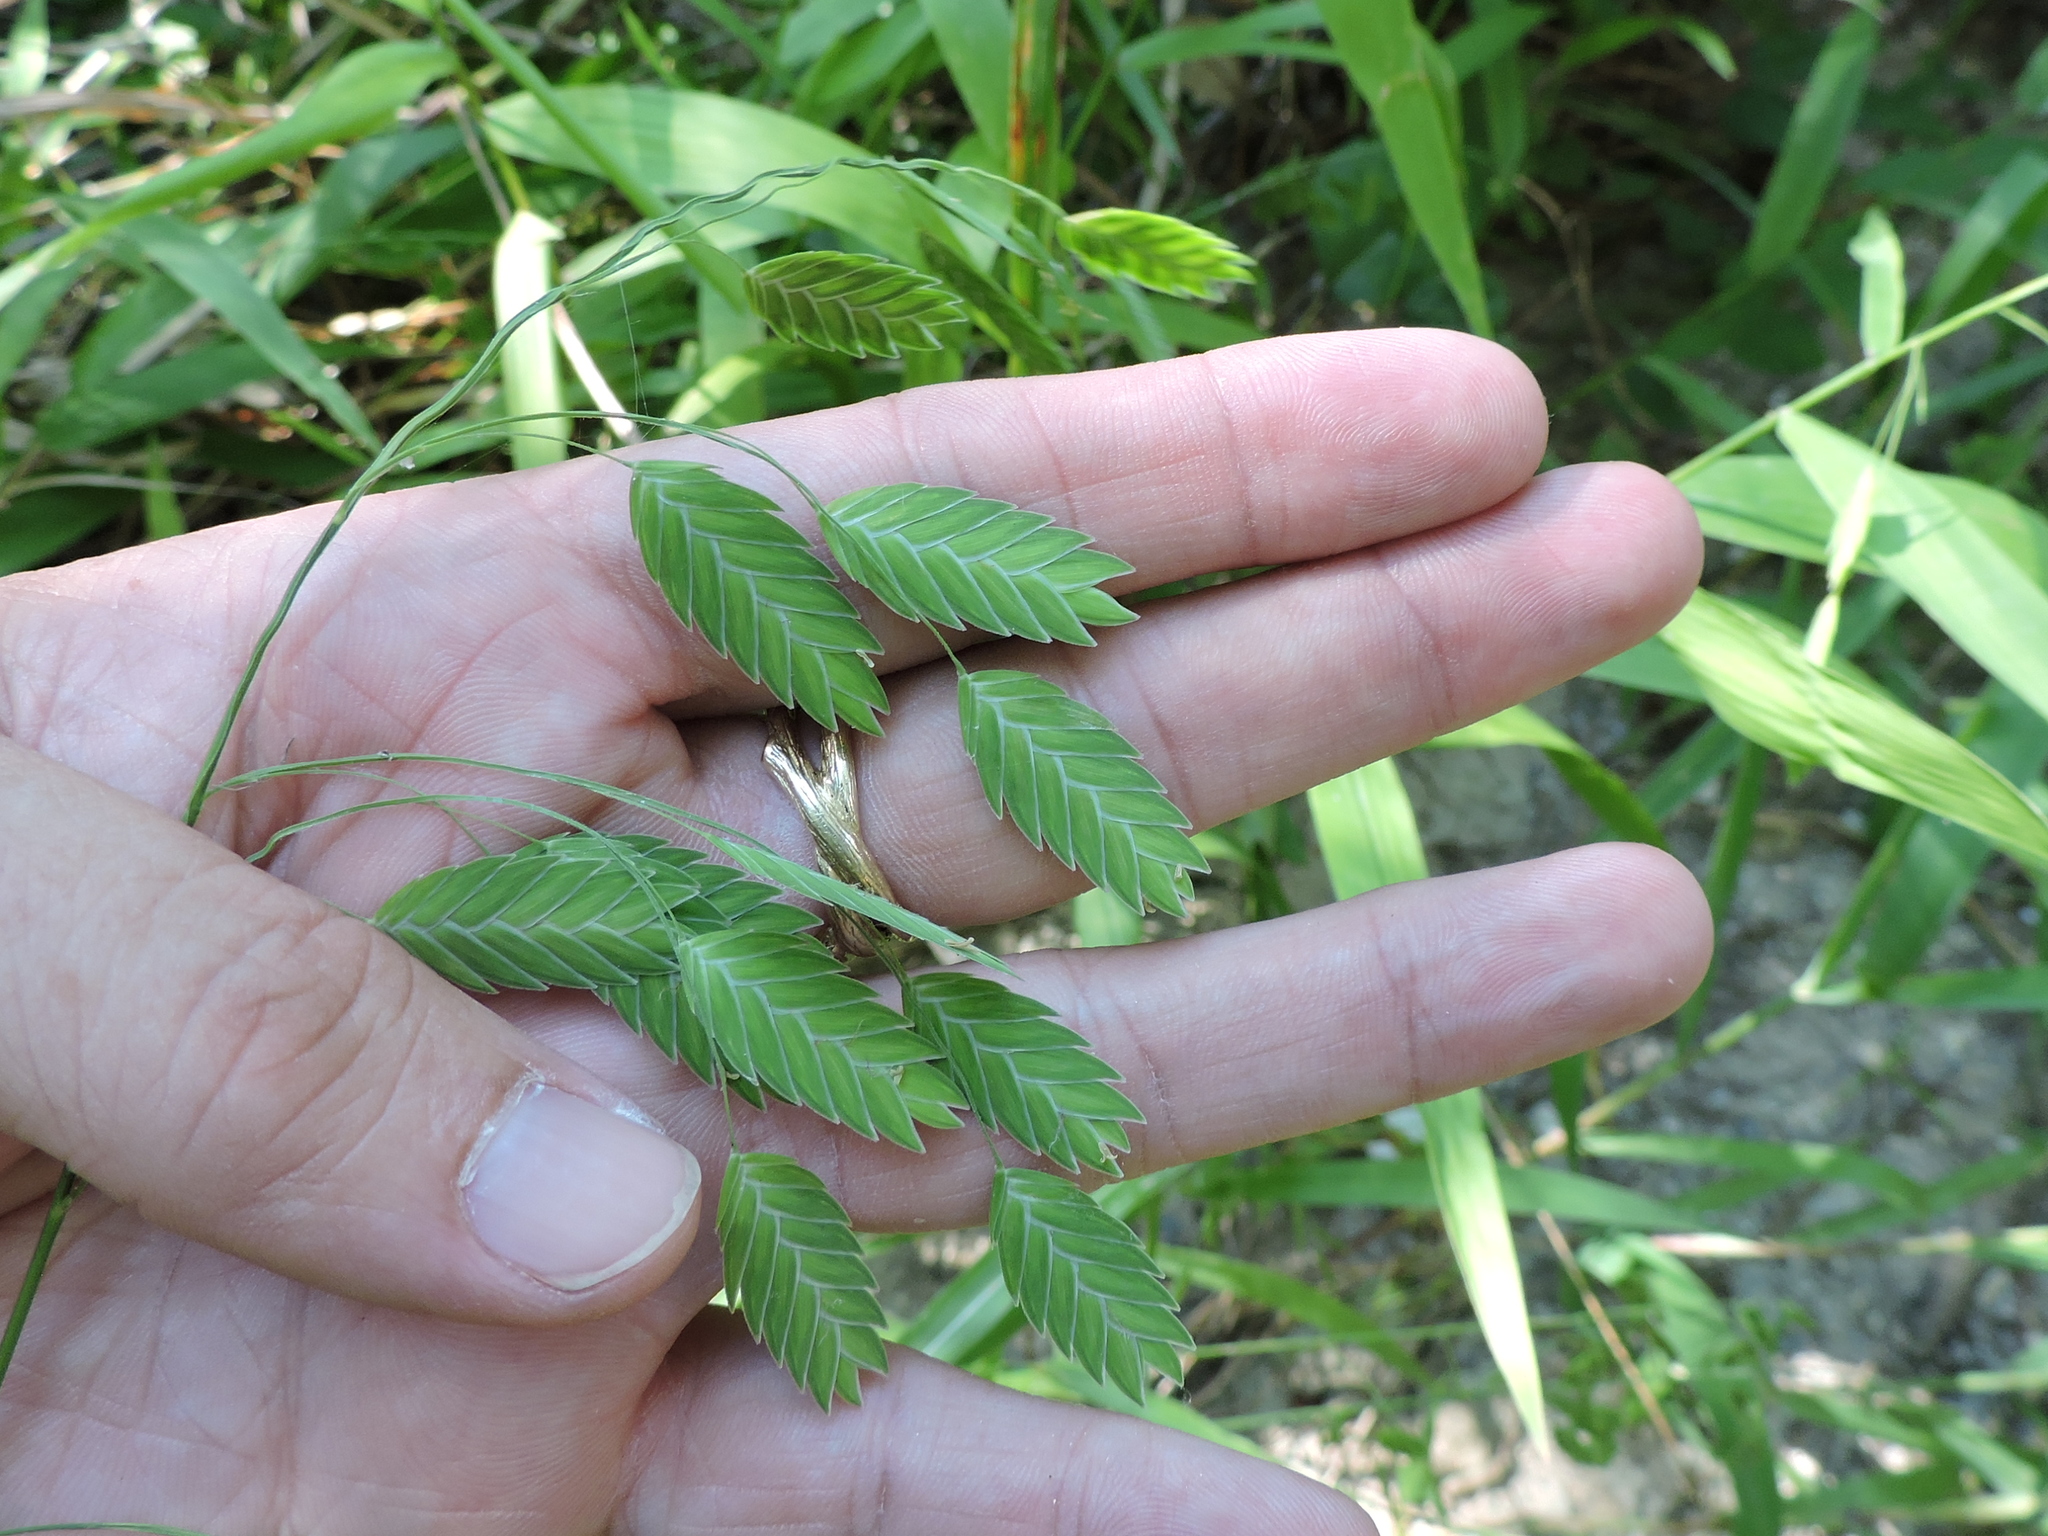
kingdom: Plantae
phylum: Tracheophyta
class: Liliopsida
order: Poales
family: Poaceae
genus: Chasmanthium
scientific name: Chasmanthium latifolium
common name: Broad-leaved chasmanthium
